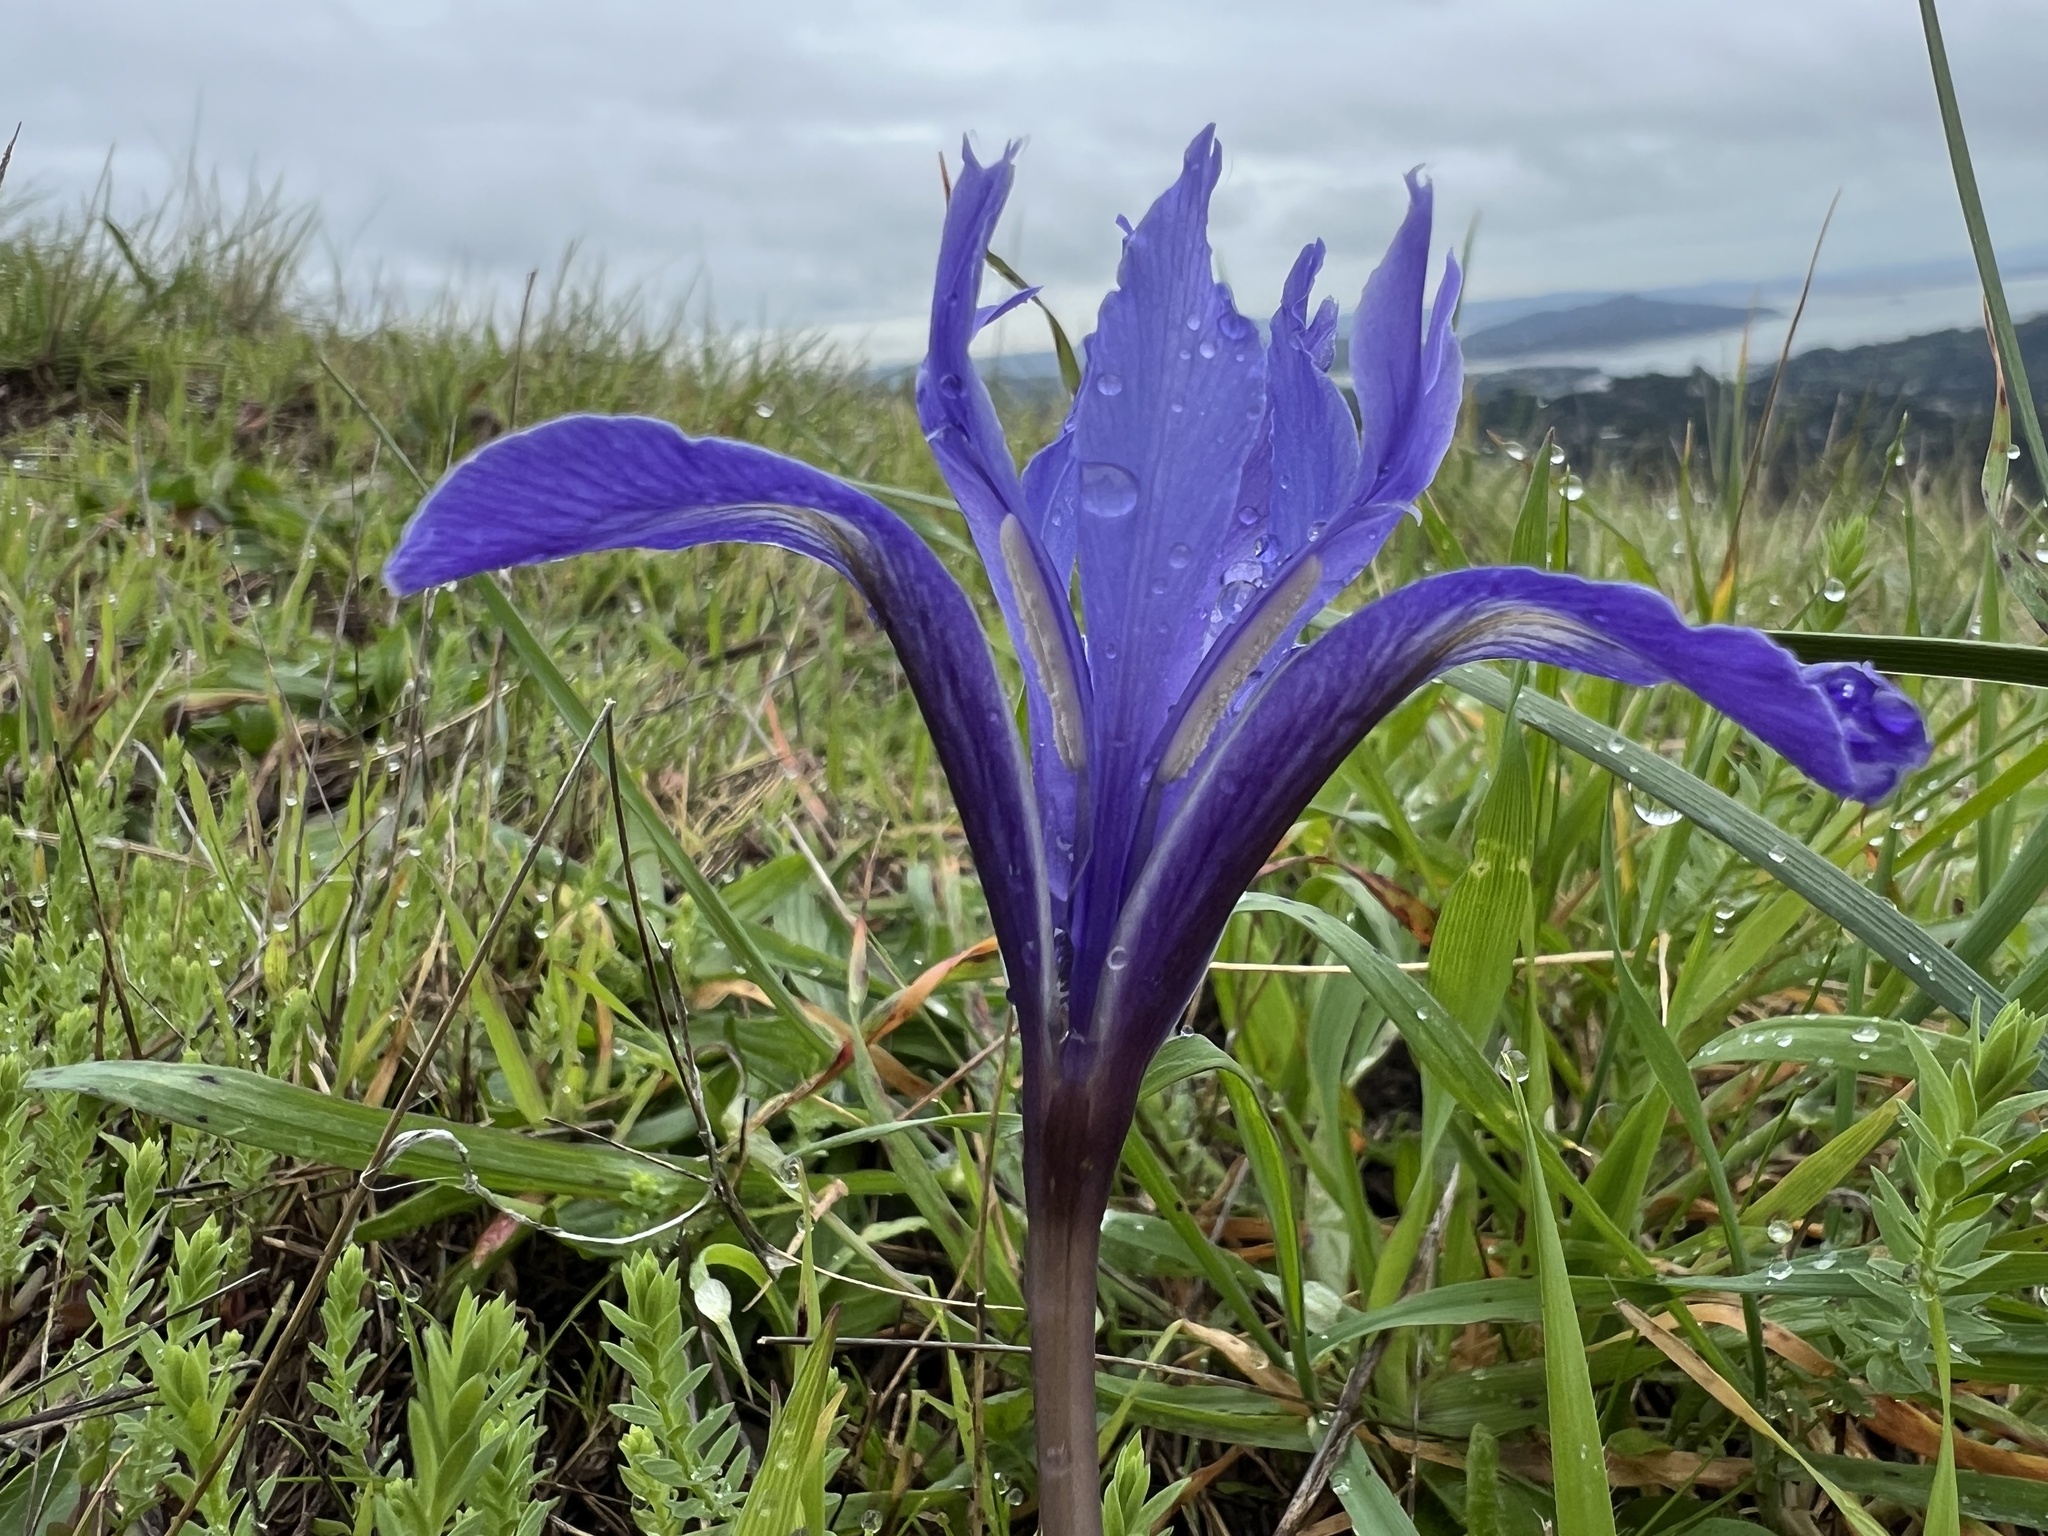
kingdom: Plantae
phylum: Tracheophyta
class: Liliopsida
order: Asparagales
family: Iridaceae
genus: Iris
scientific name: Iris macrosiphon
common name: Ground iris
